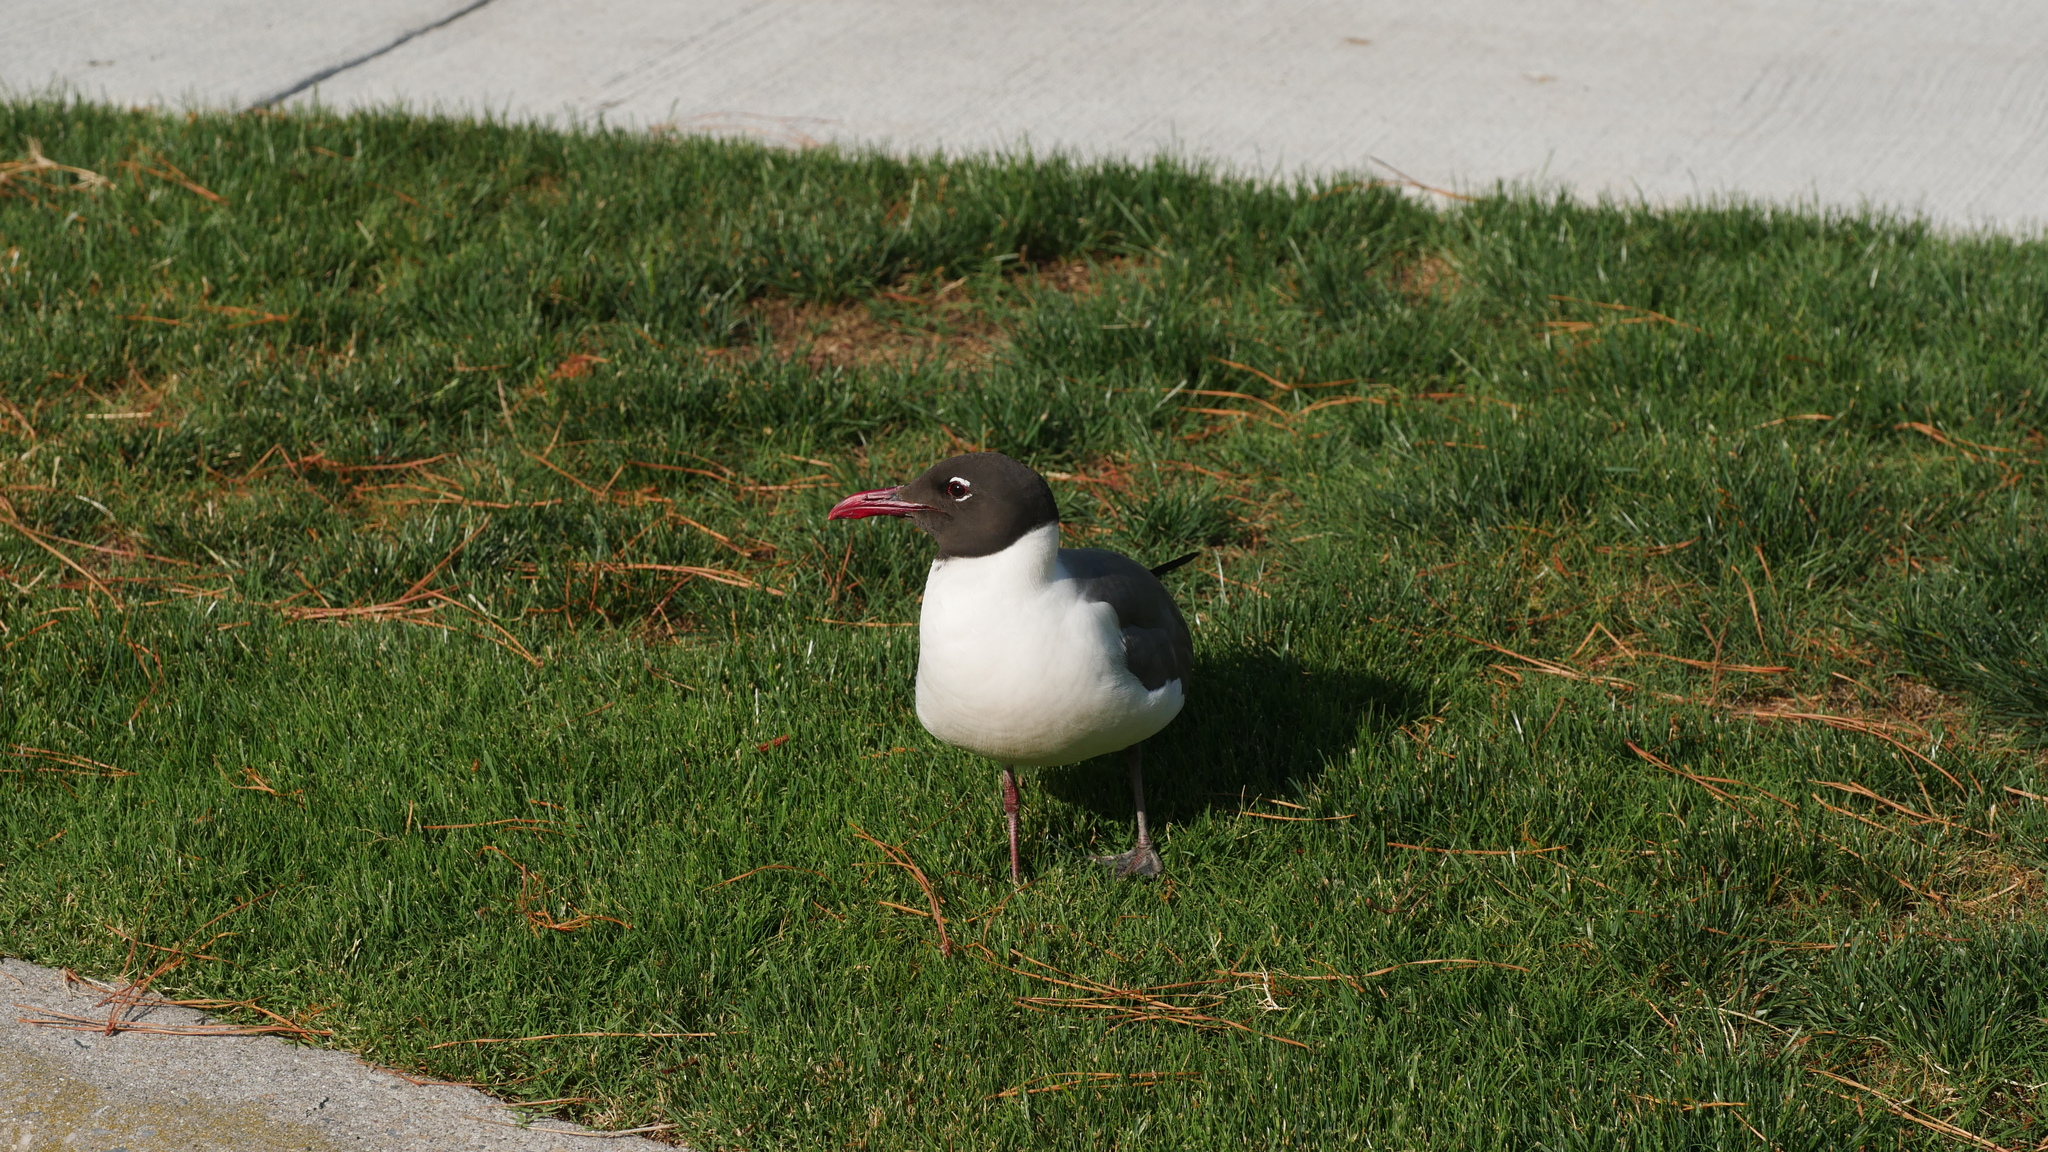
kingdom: Animalia
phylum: Chordata
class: Aves
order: Charadriiformes
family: Laridae
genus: Leucophaeus
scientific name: Leucophaeus atricilla
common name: Laughing gull
